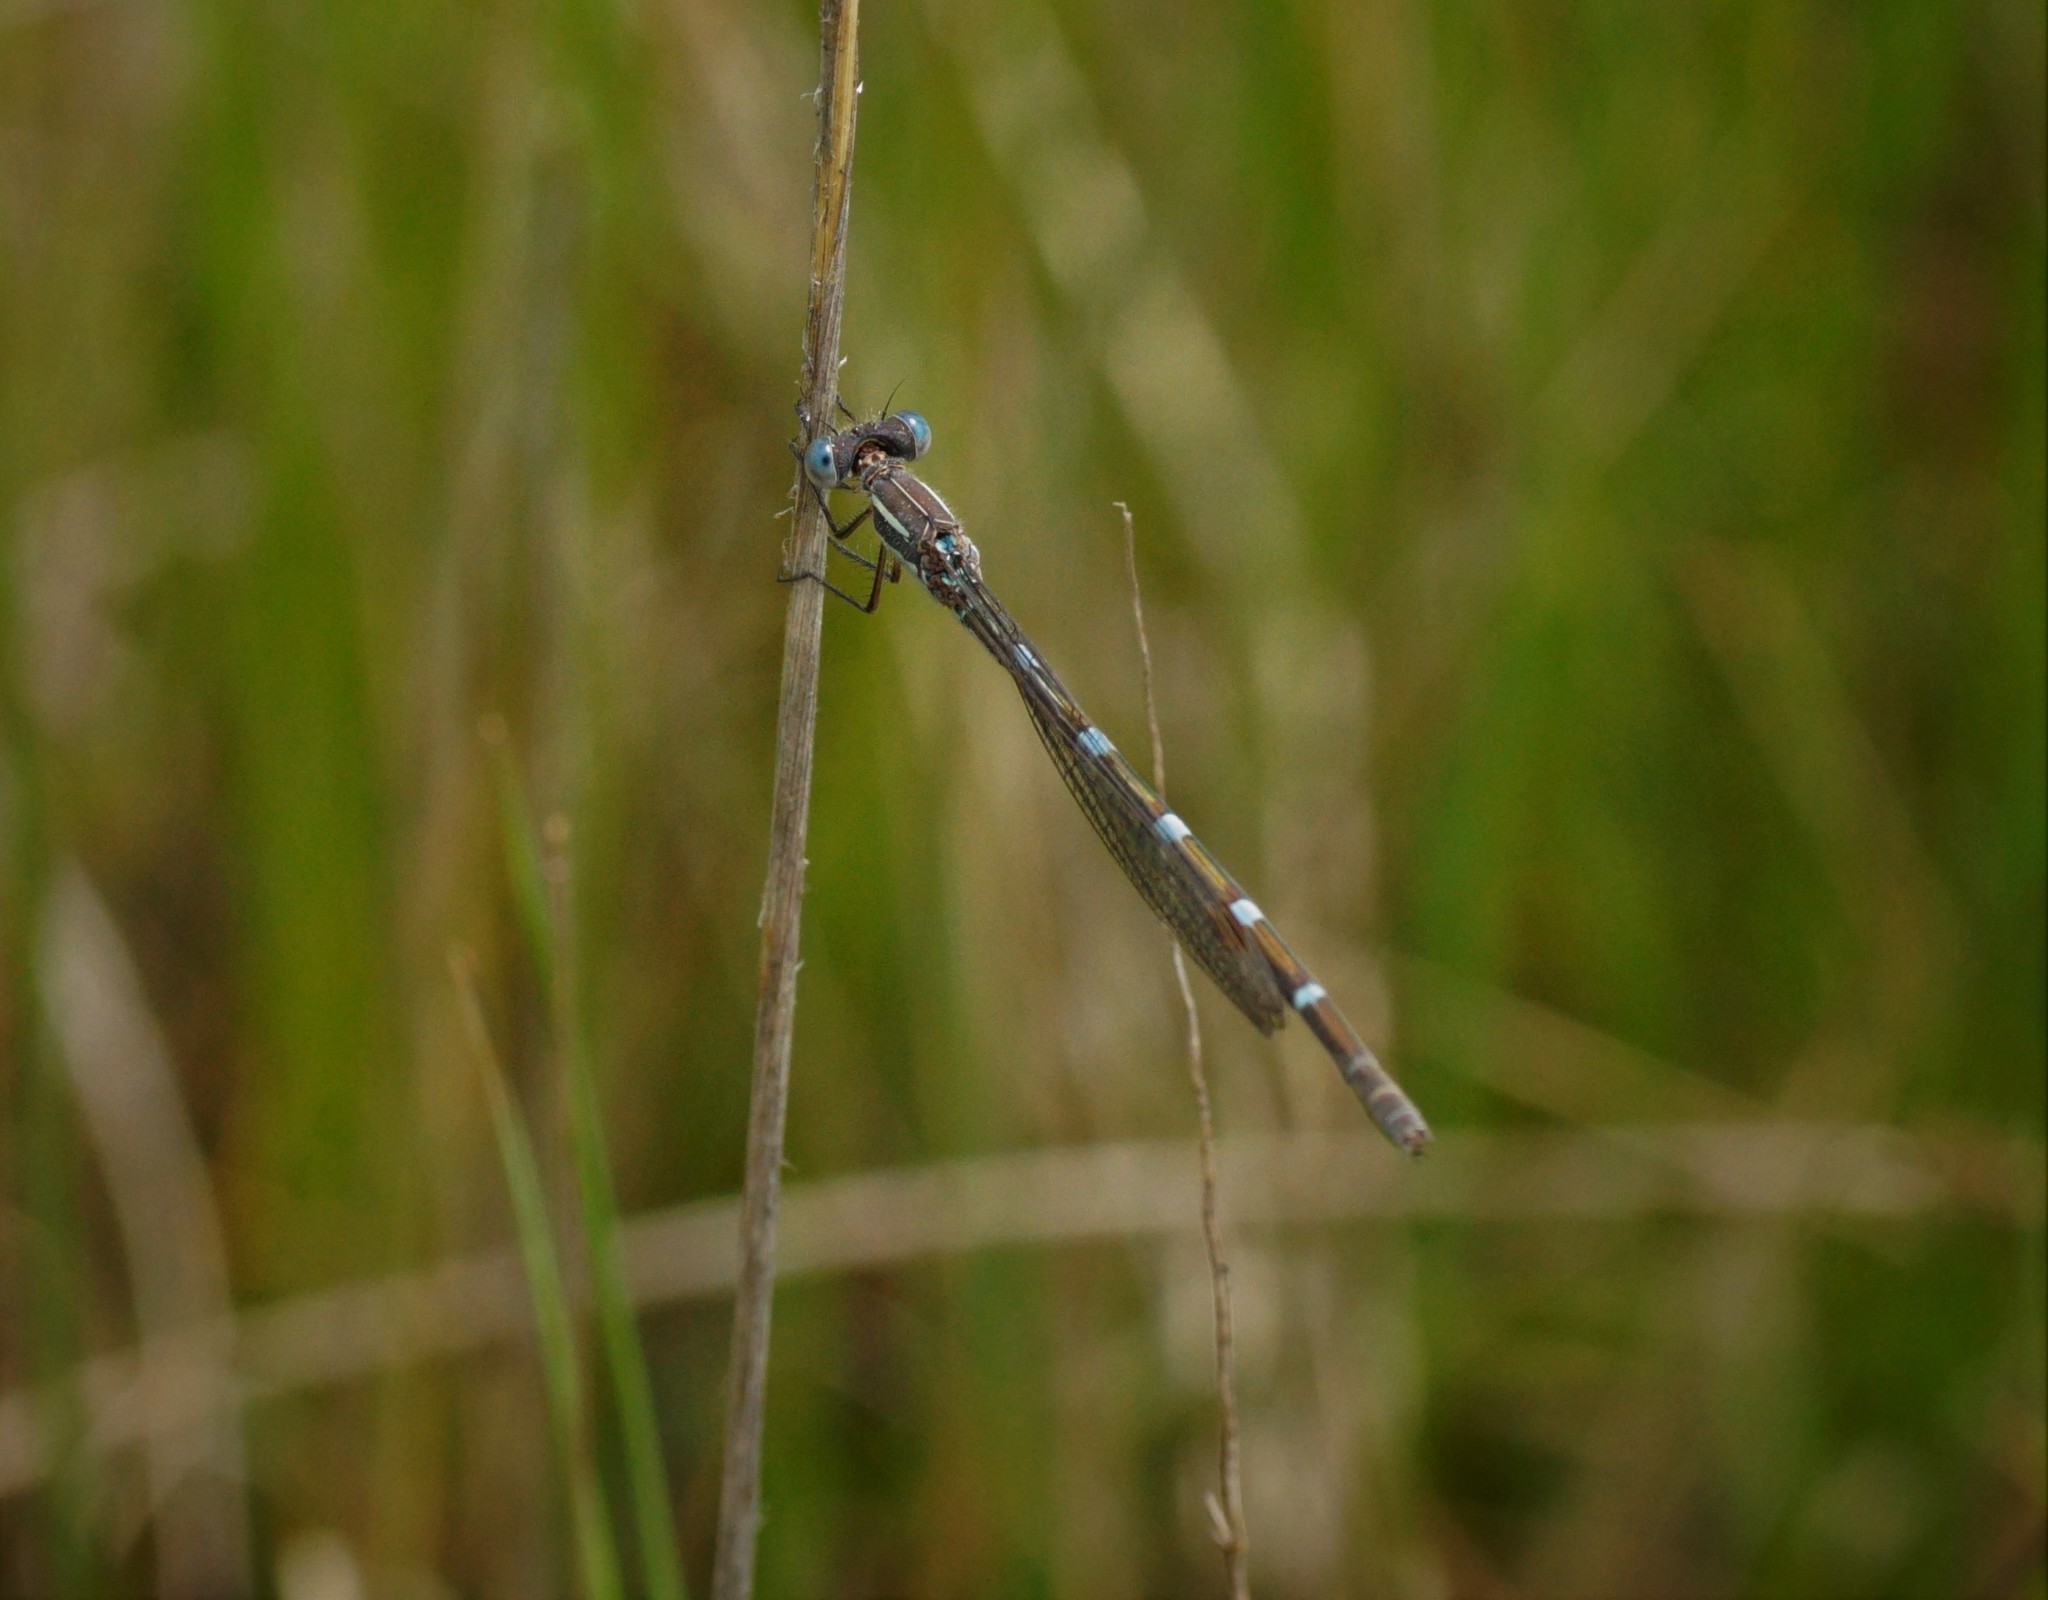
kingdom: Animalia
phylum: Arthropoda
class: Insecta
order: Odonata
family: Lestidae
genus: Austrolestes
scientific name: Austrolestes leda
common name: Wandering ringtail
